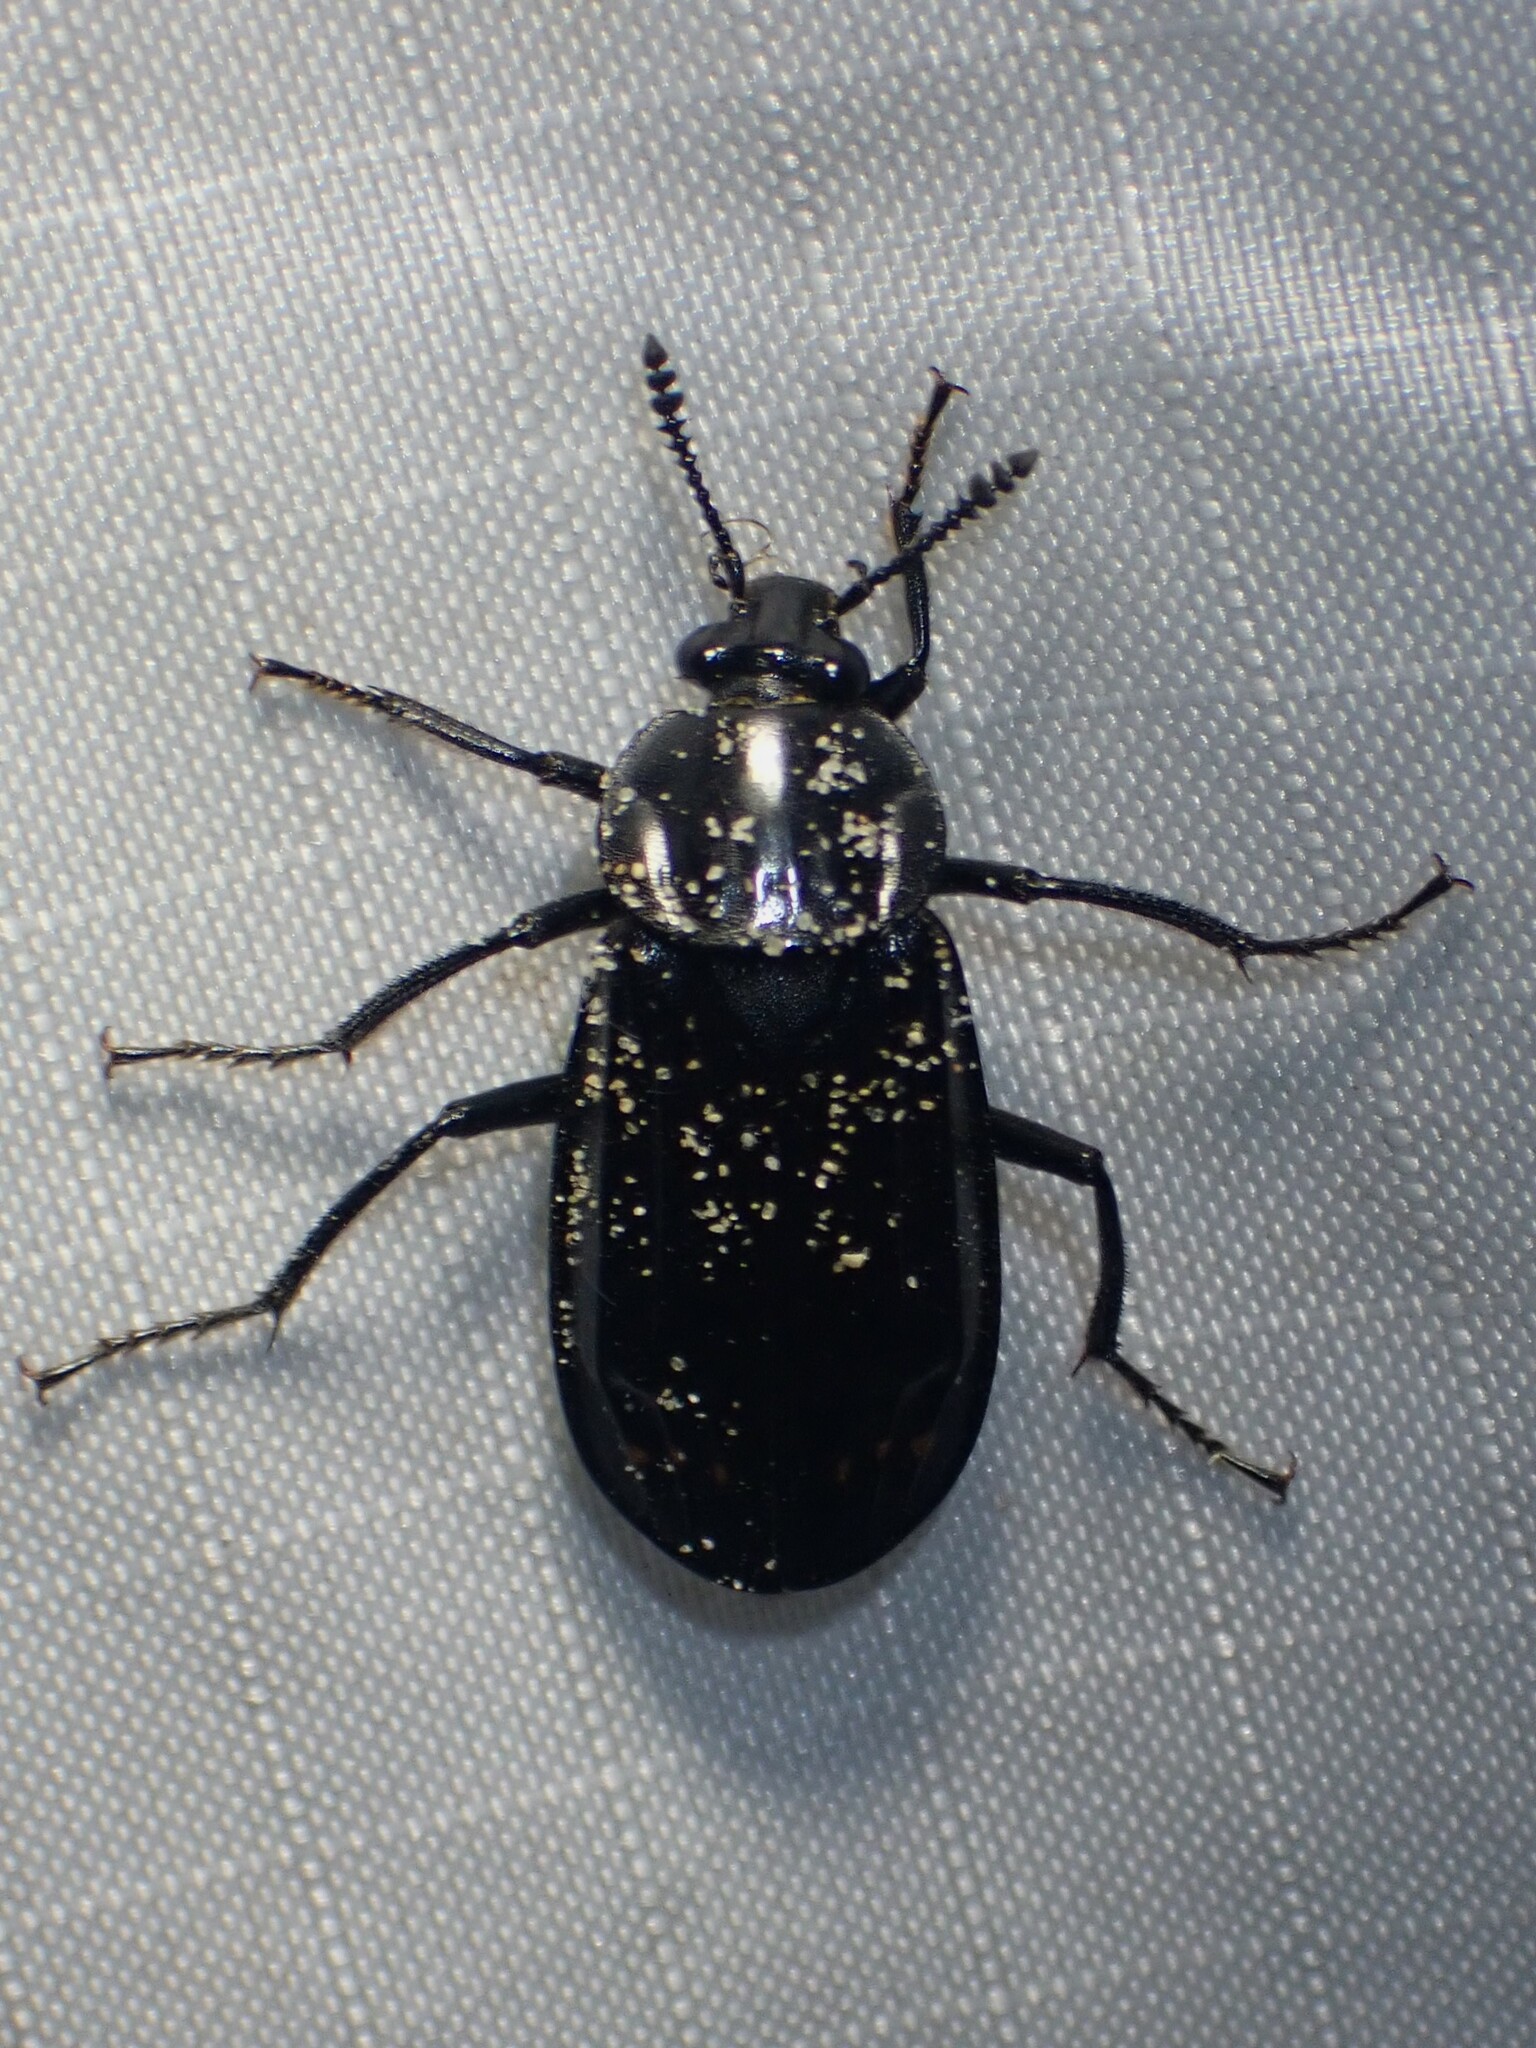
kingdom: Animalia
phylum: Arthropoda
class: Insecta
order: Coleoptera
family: Staphylinidae
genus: Necrodes
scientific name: Necrodes surinamensis
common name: Red-lined carrion beetle
